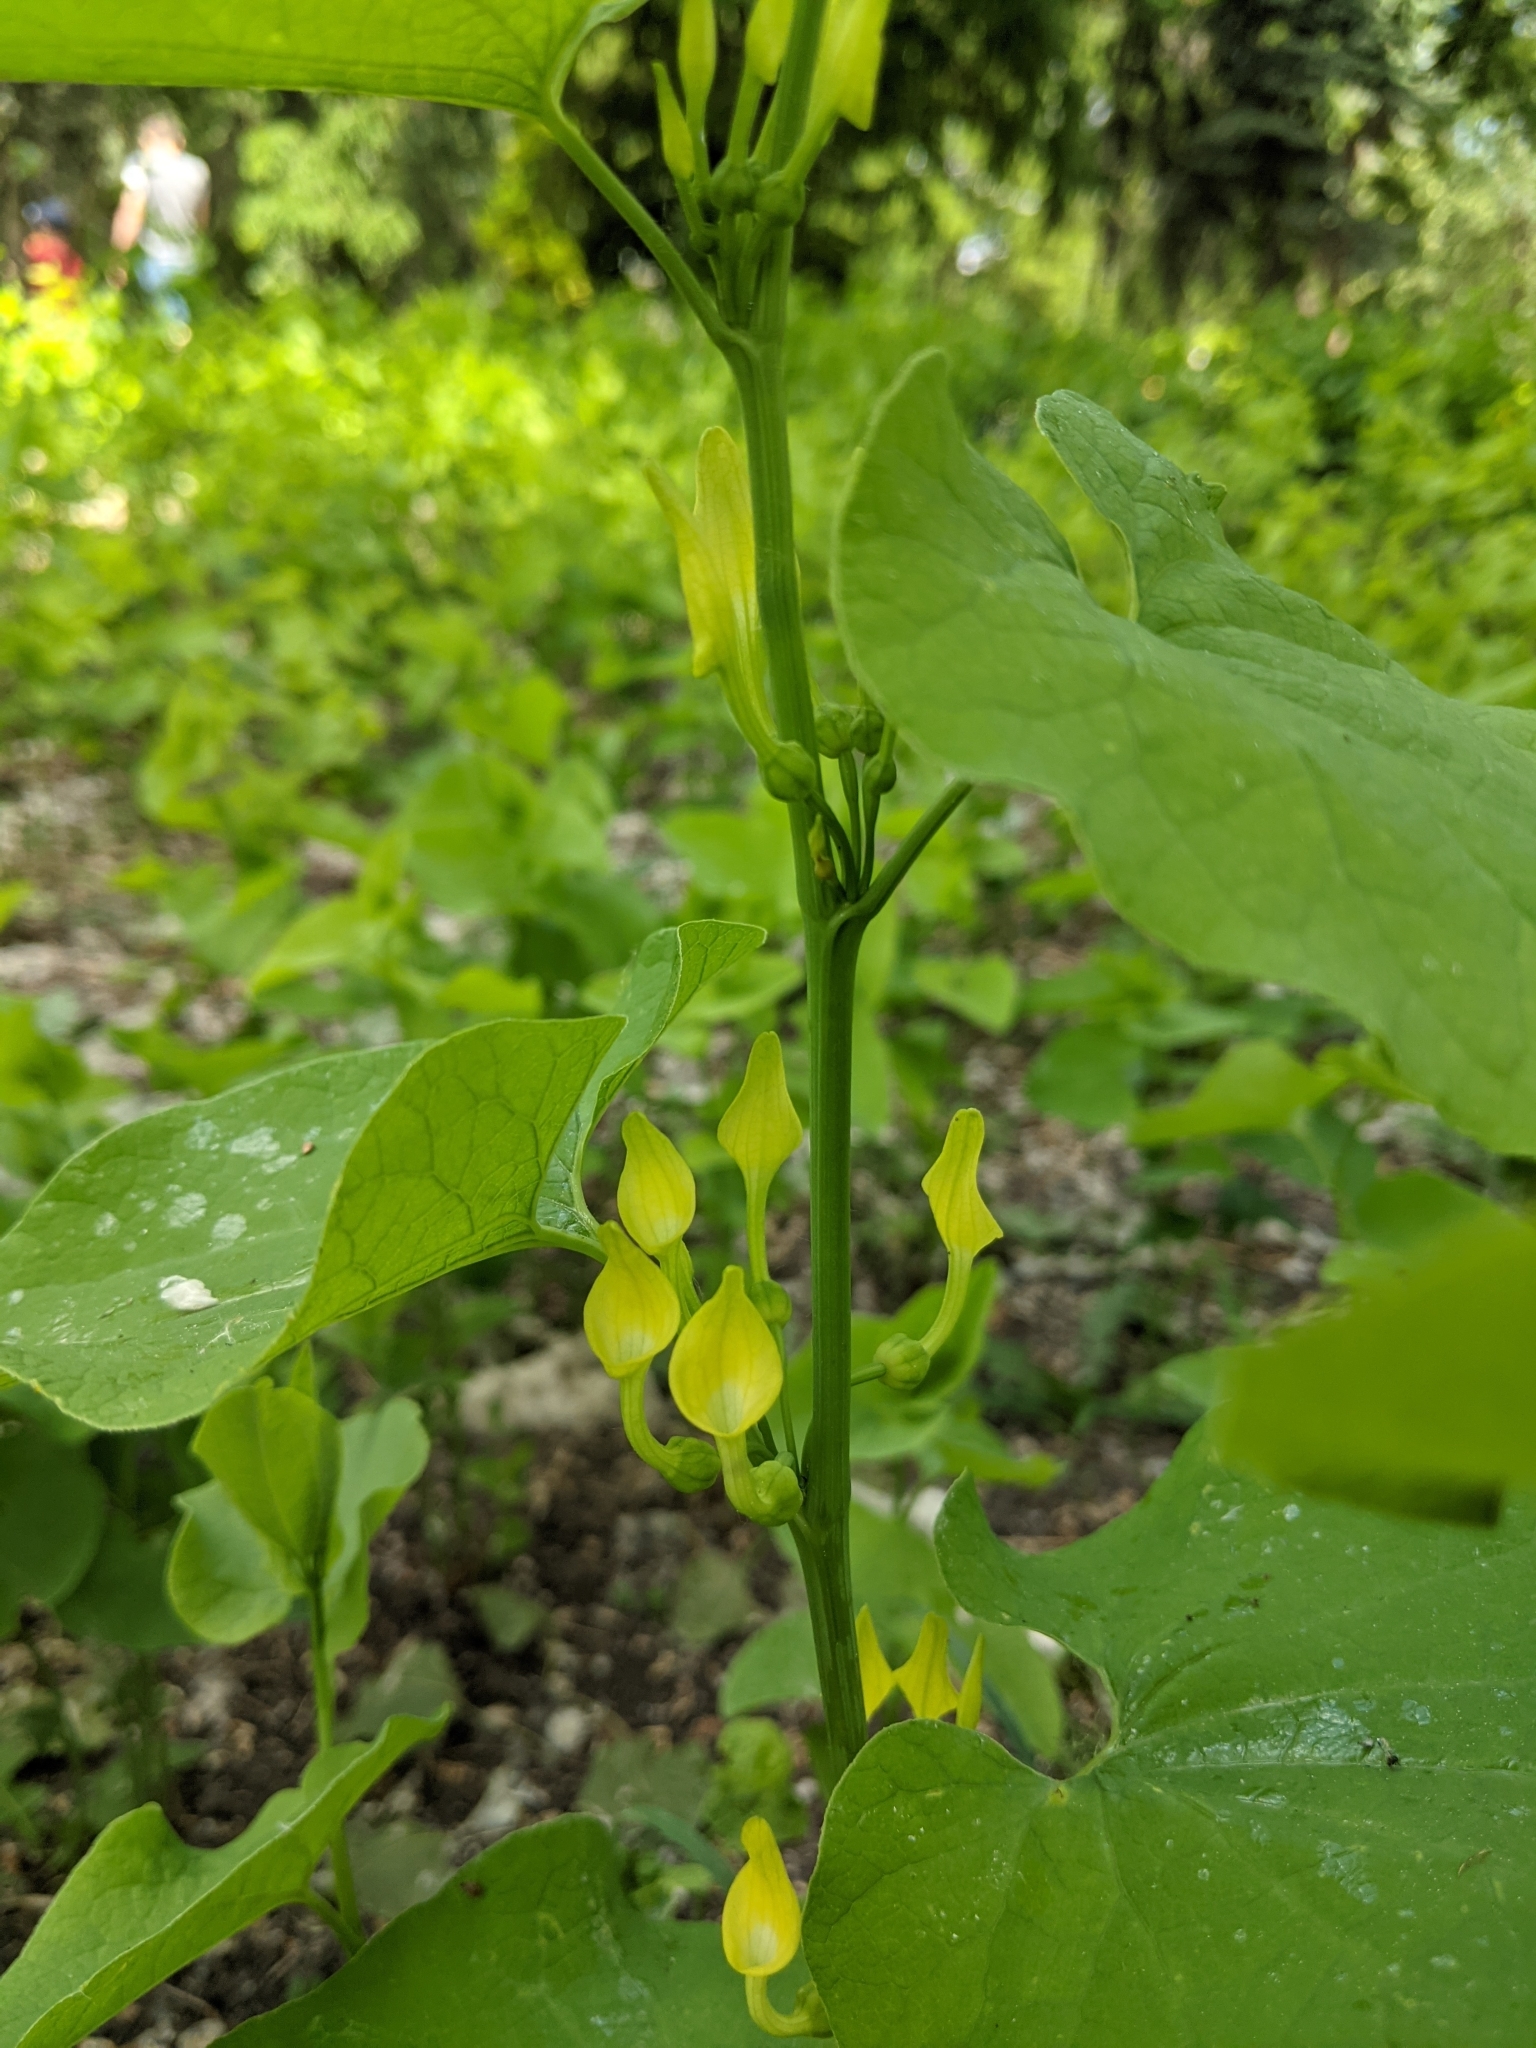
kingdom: Plantae
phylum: Tracheophyta
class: Magnoliopsida
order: Piperales
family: Aristolochiaceae
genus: Aristolochia
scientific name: Aristolochia clematitis
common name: Birthwort
